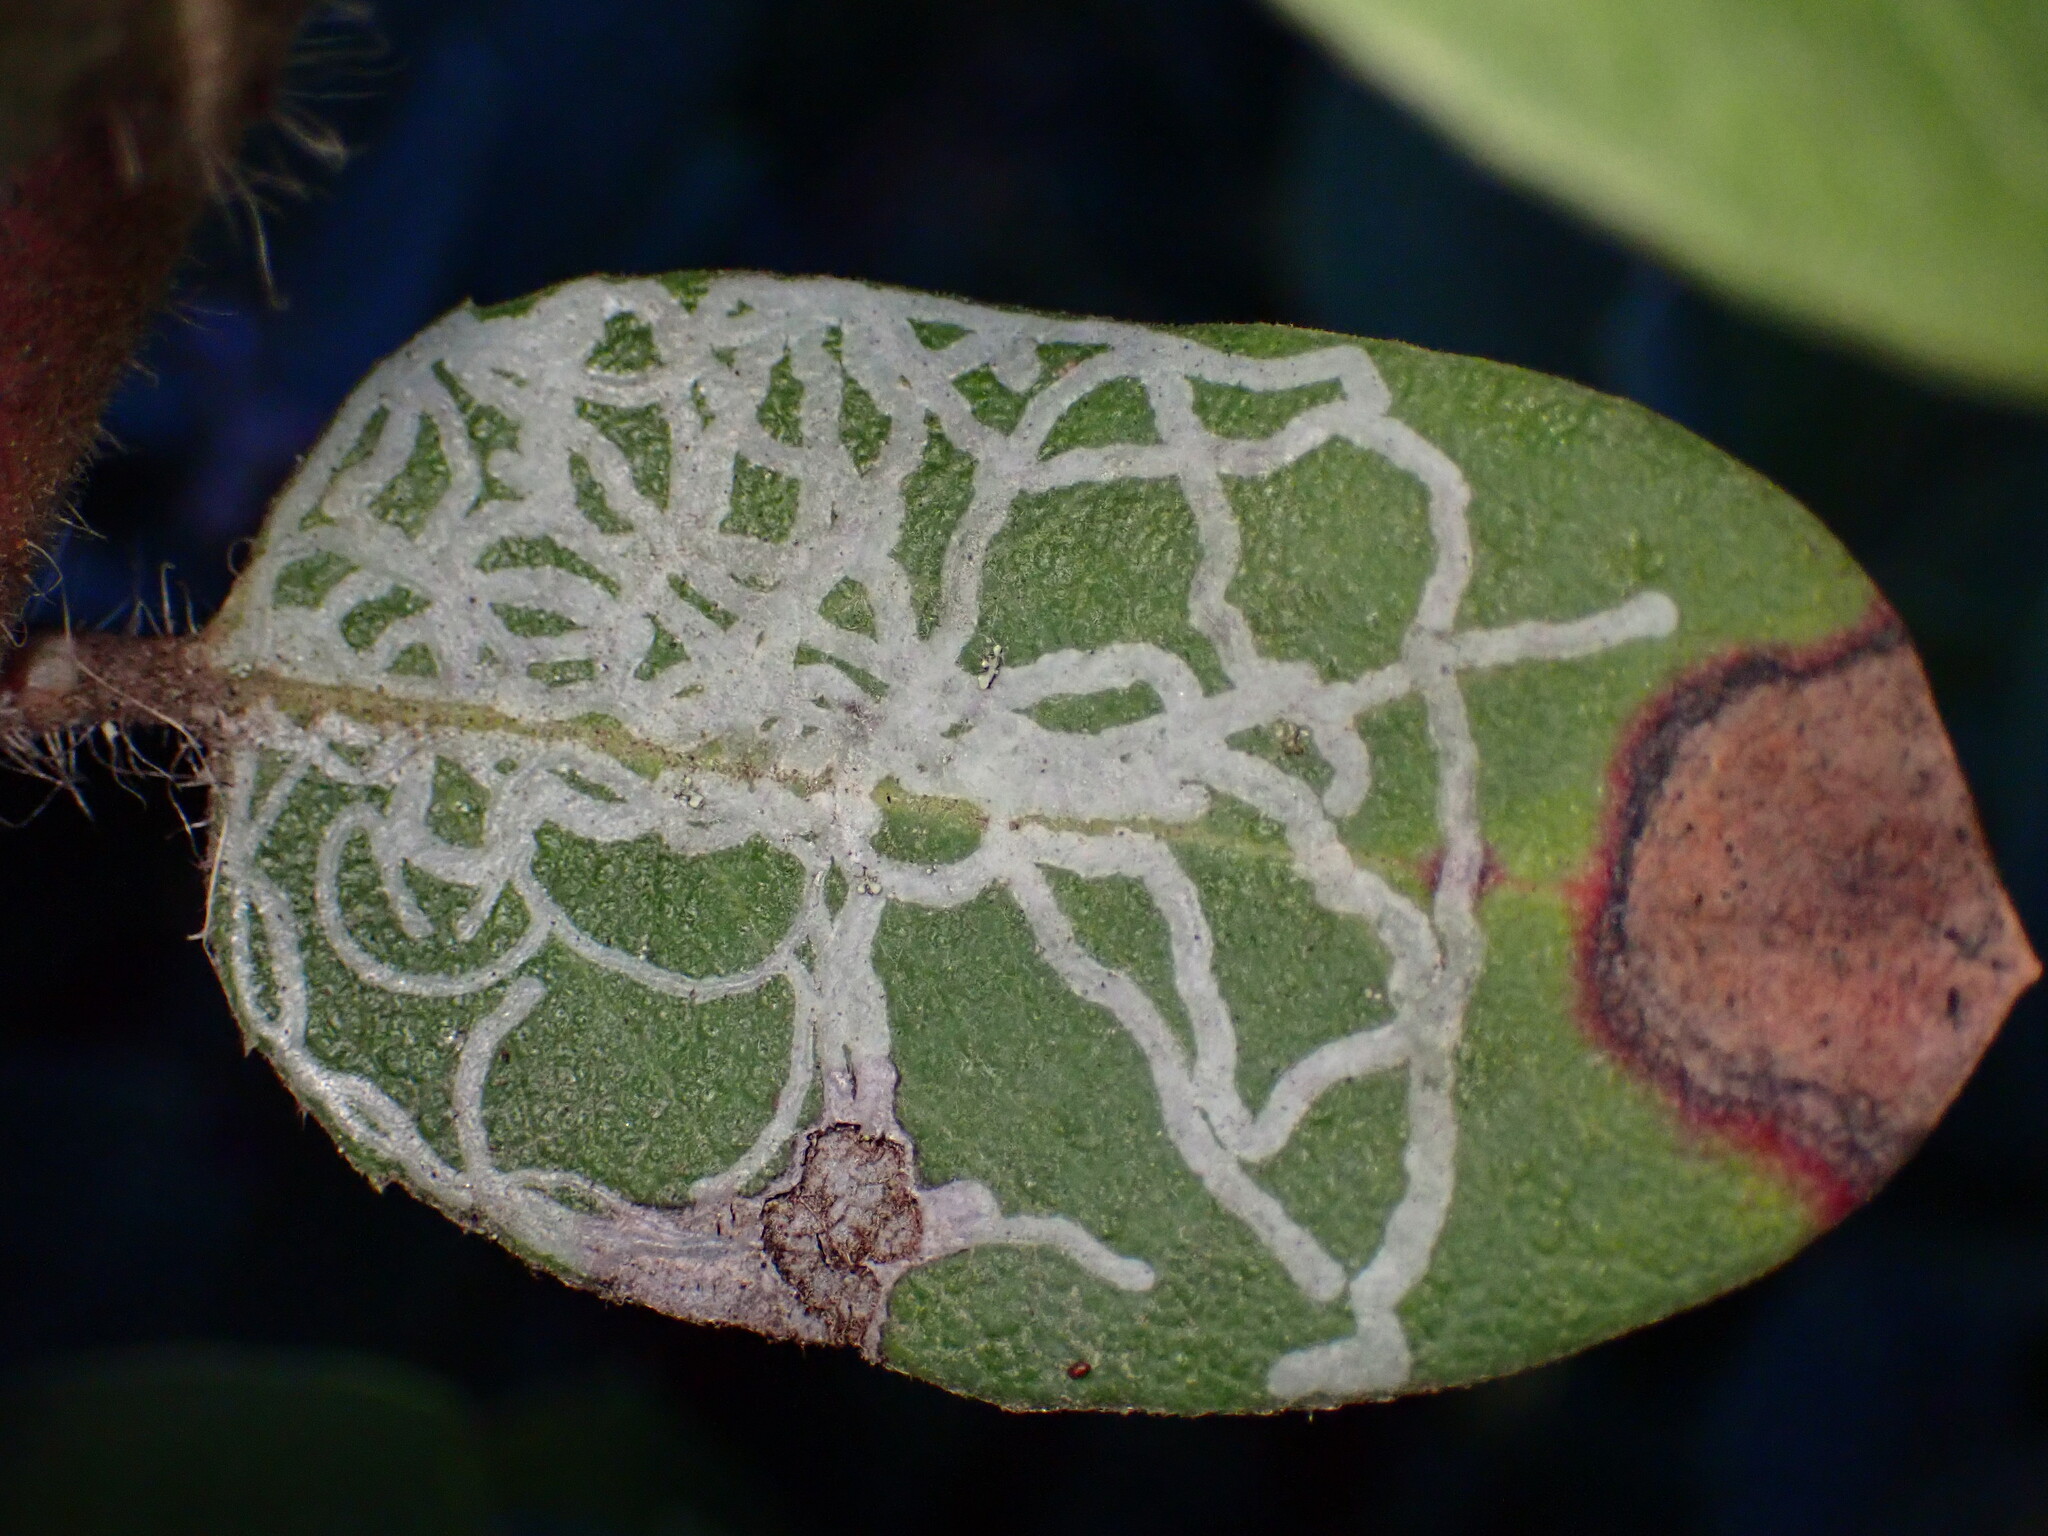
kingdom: Animalia
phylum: Arthropoda
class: Insecta
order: Lepidoptera
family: Gracillariidae
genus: Marmara
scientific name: Marmara arbutiella
